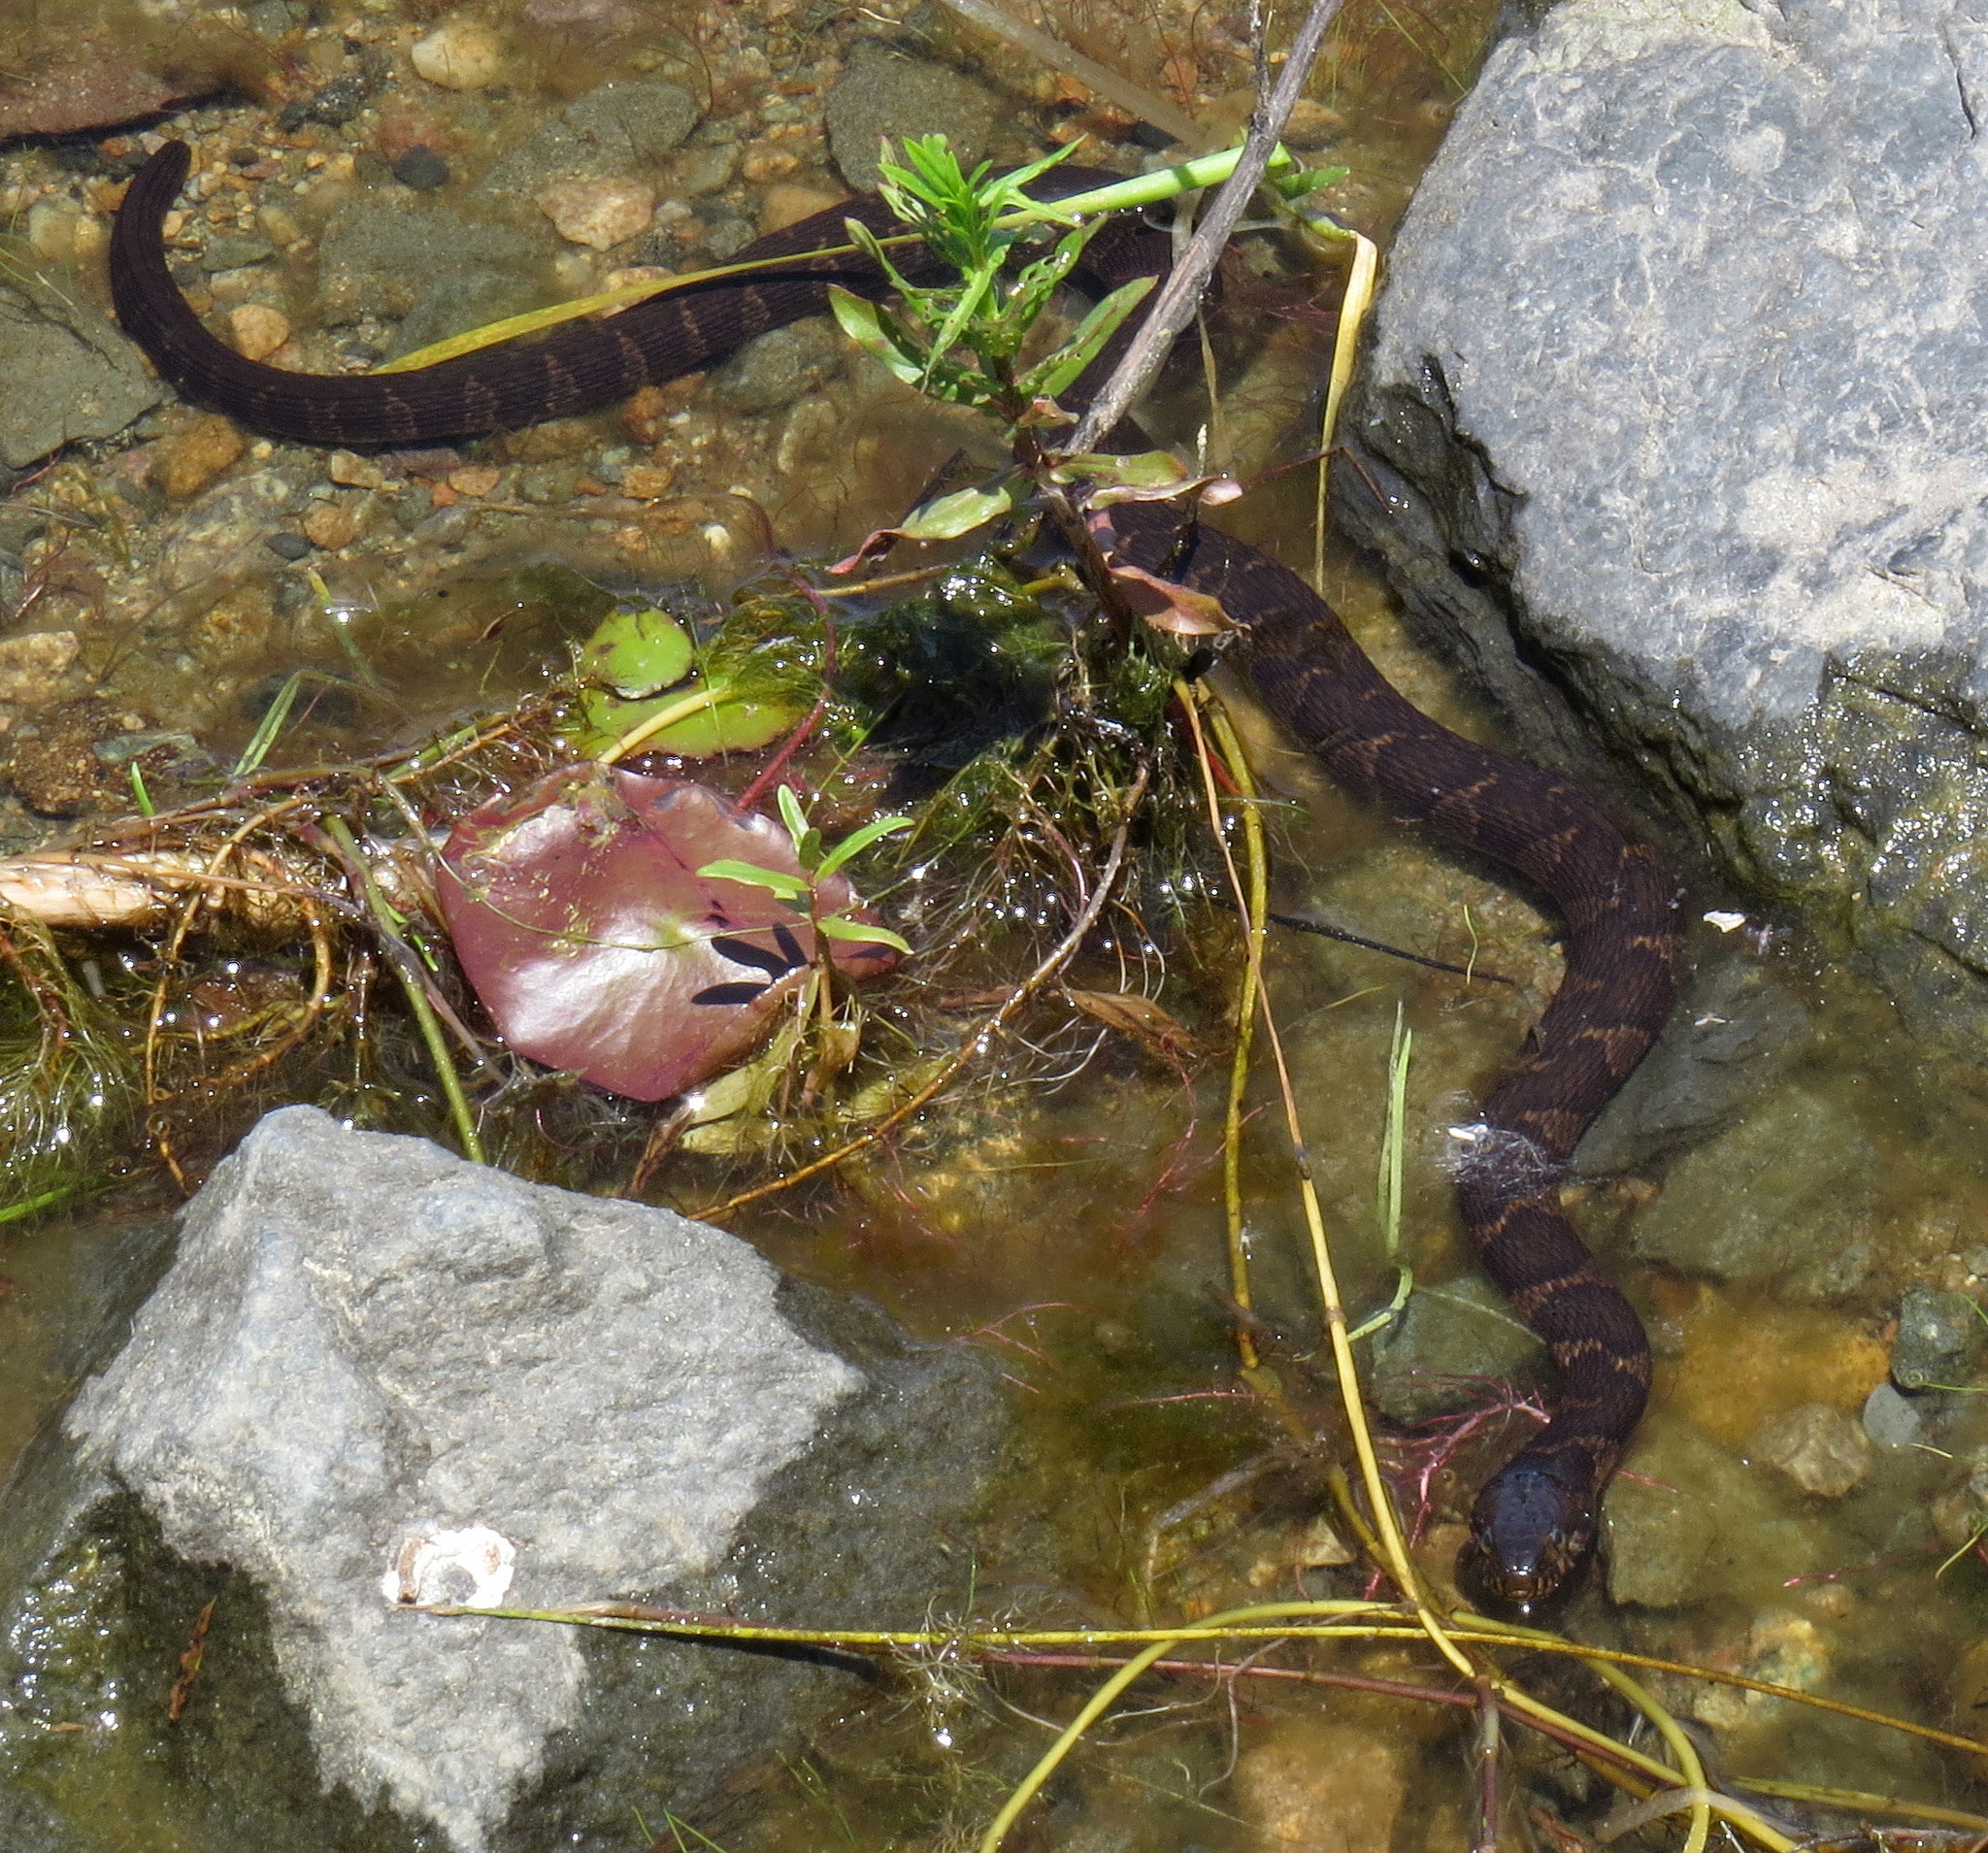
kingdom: Animalia
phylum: Chordata
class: Squamata
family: Colubridae
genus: Nerodia
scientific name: Nerodia sipedon
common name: Northern water snake
